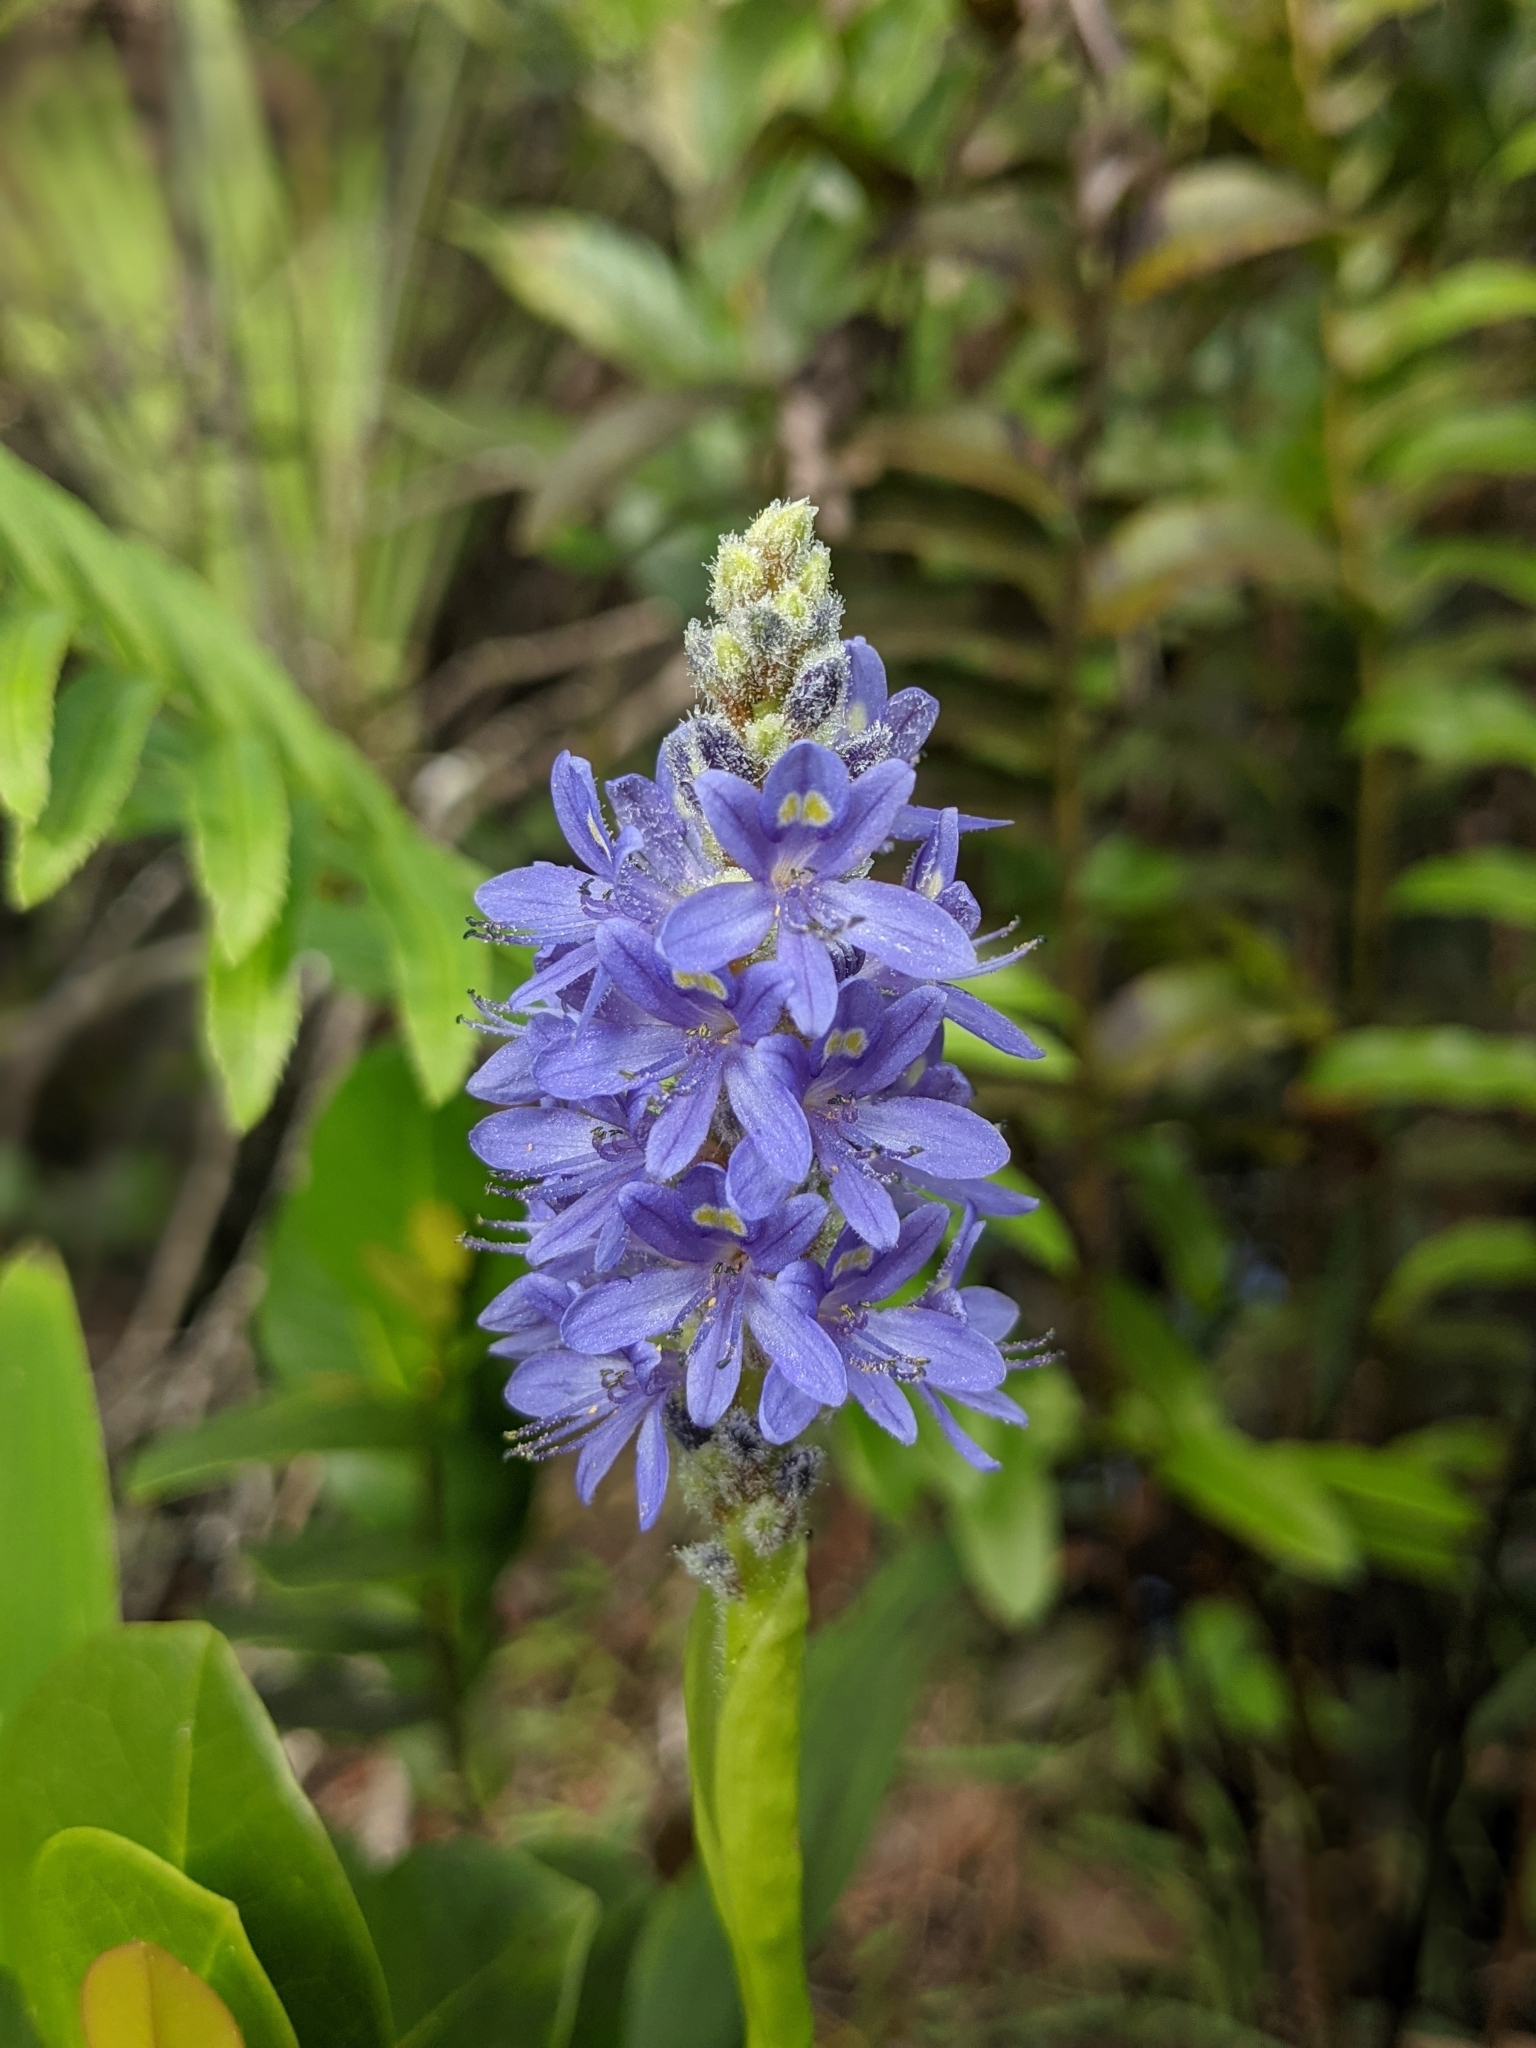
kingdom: Plantae
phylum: Tracheophyta
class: Liliopsida
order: Commelinales
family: Pontederiaceae
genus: Pontederia
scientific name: Pontederia cordata
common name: Pickerelweed
